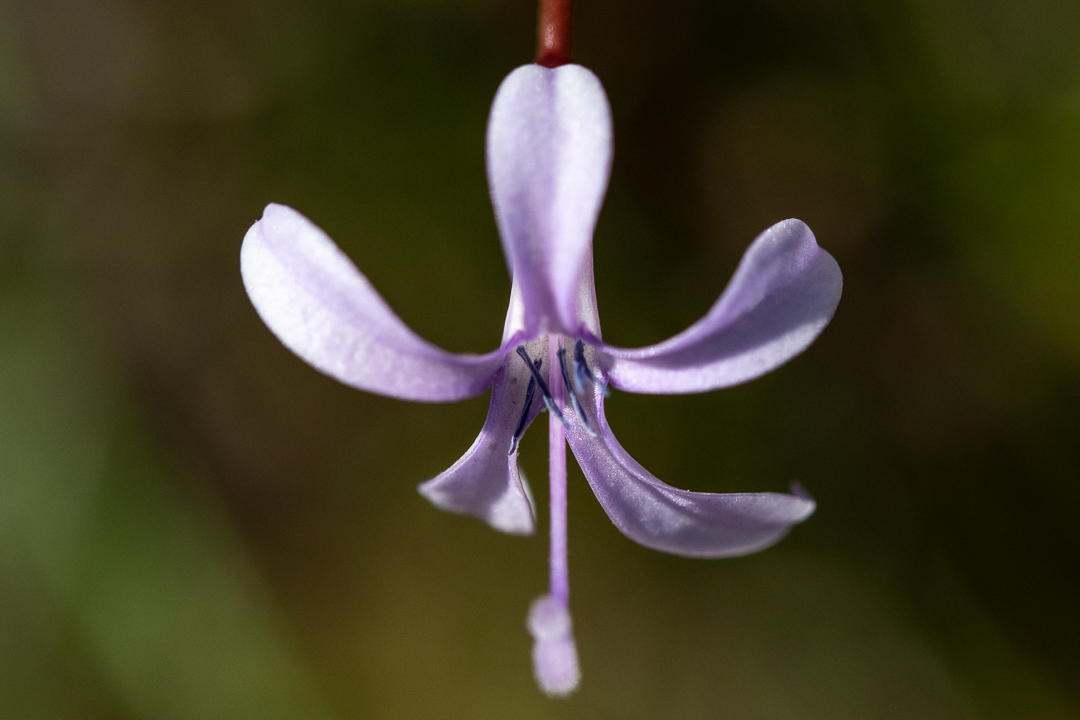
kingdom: Plantae
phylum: Tracheophyta
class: Magnoliopsida
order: Asterales
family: Campanulaceae
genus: Prismatocarpus
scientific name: Prismatocarpus diffusus
